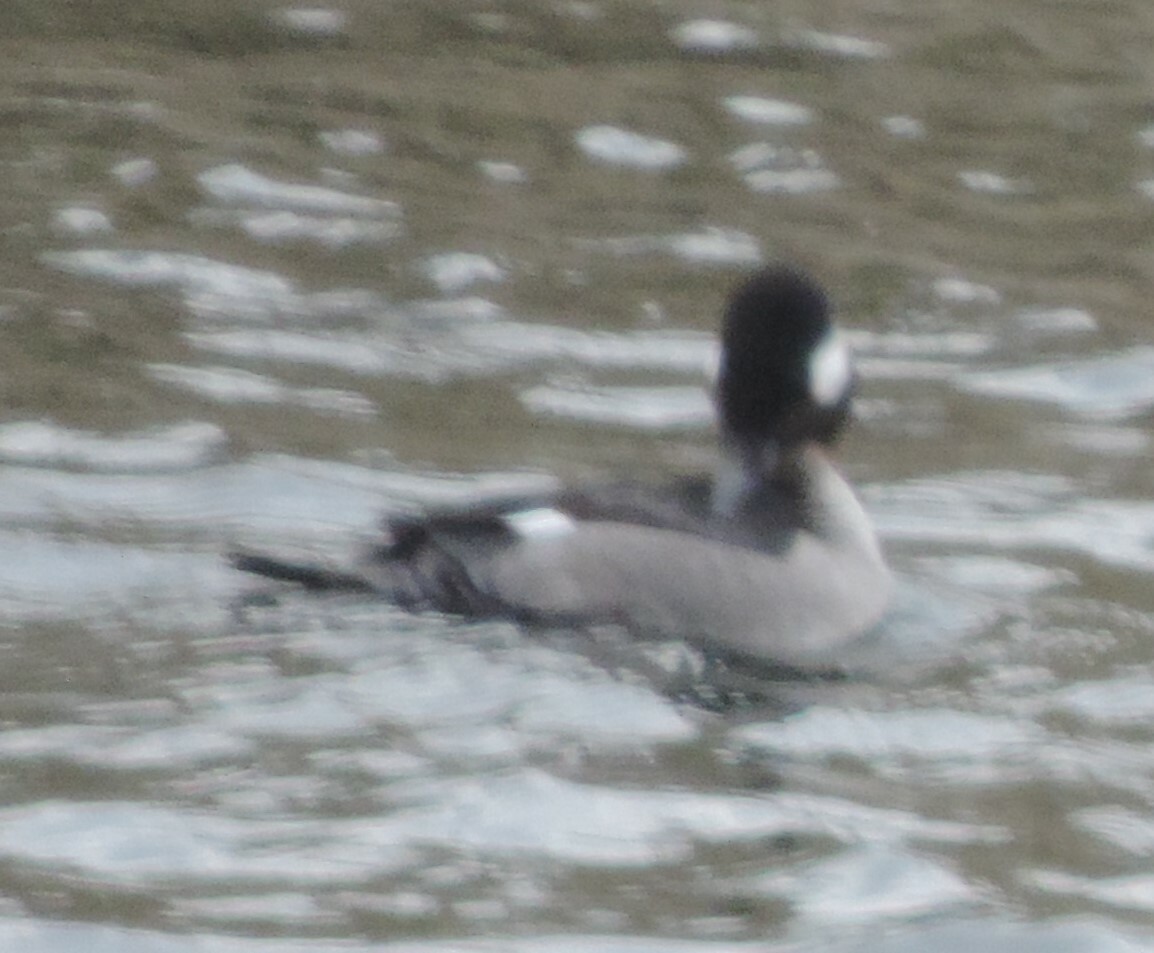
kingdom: Animalia
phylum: Chordata
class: Aves
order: Anseriformes
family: Anatidae
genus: Bucephala
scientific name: Bucephala albeola
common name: Bufflehead
